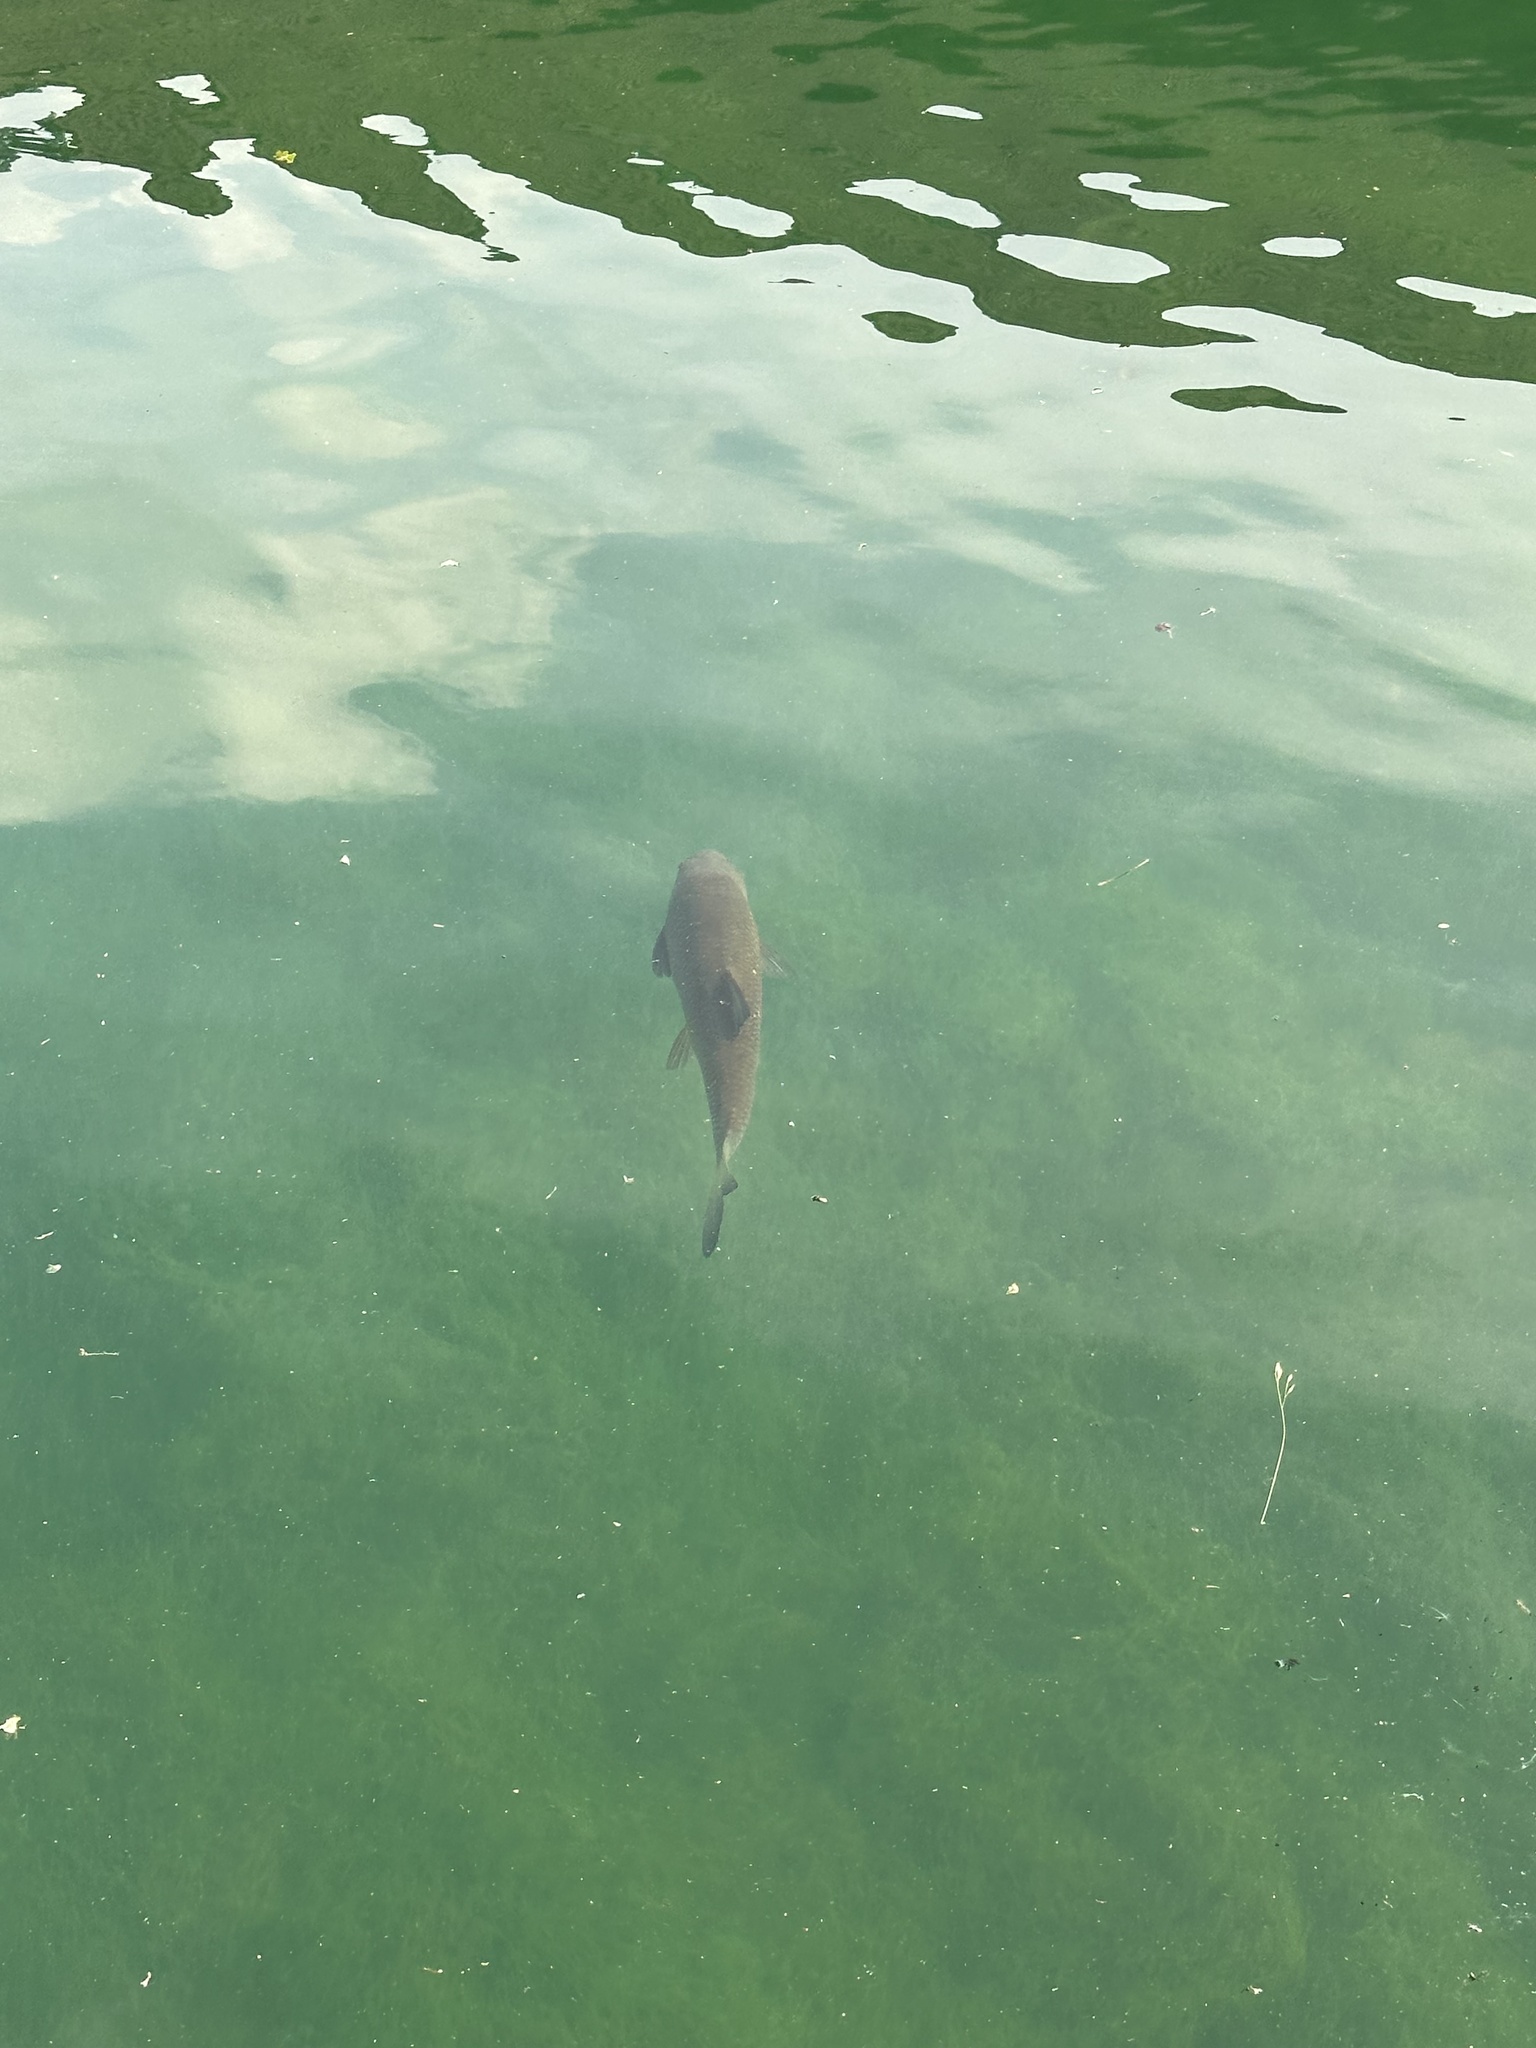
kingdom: Animalia
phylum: Chordata
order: Cypriniformes
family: Cyprinidae
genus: Squalius
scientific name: Squalius cephalus
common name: Chub
